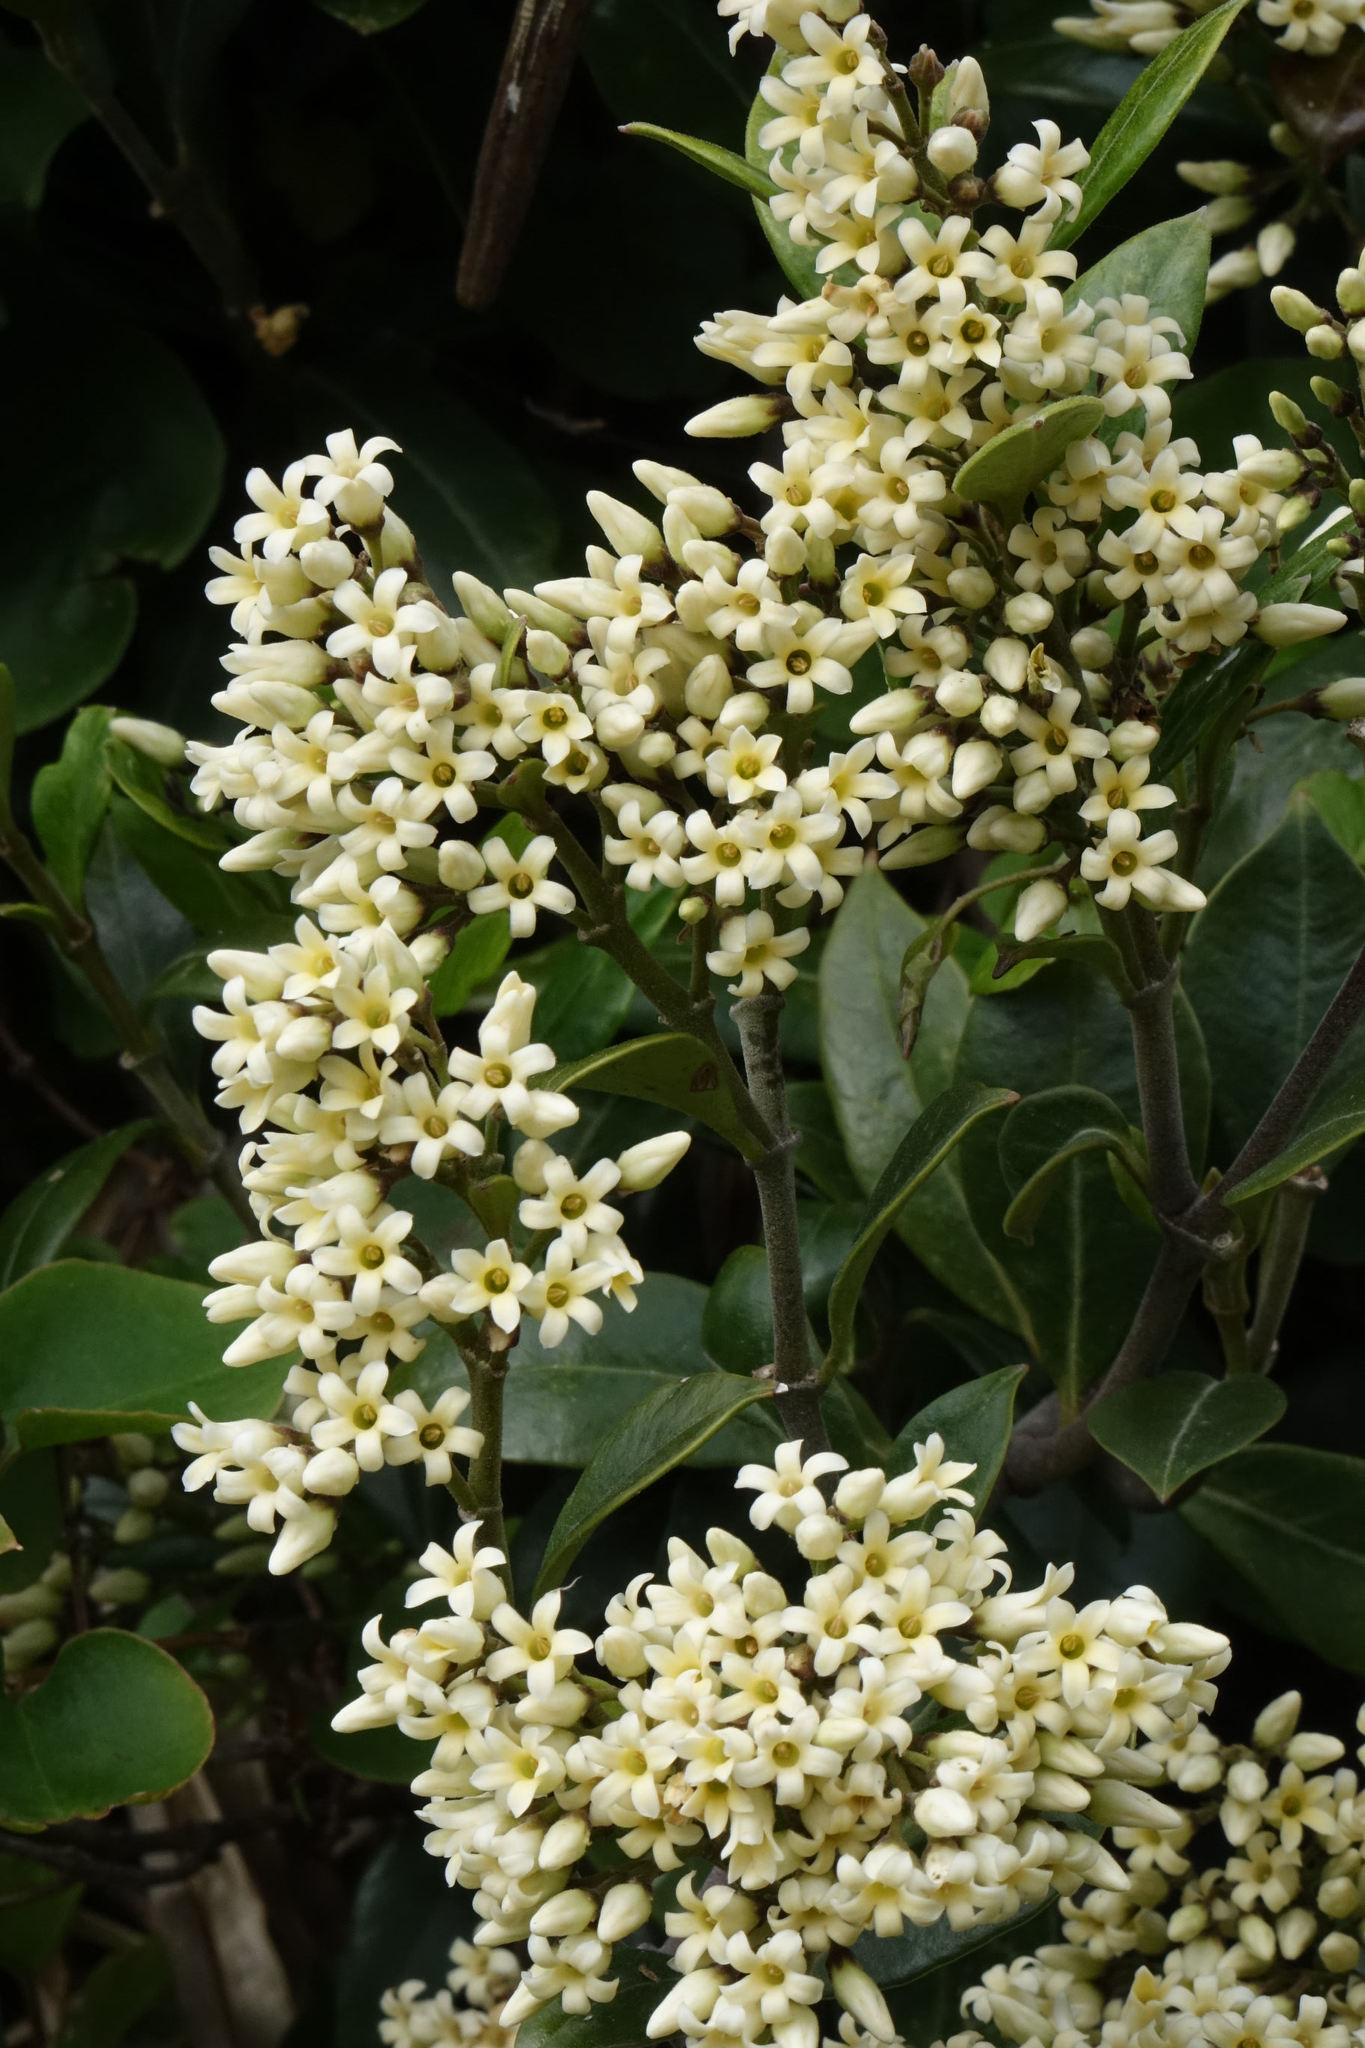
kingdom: Plantae
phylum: Tracheophyta
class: Magnoliopsida
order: Gentianales
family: Apocynaceae
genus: Parsonsia
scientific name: Parsonsia heterophylla
